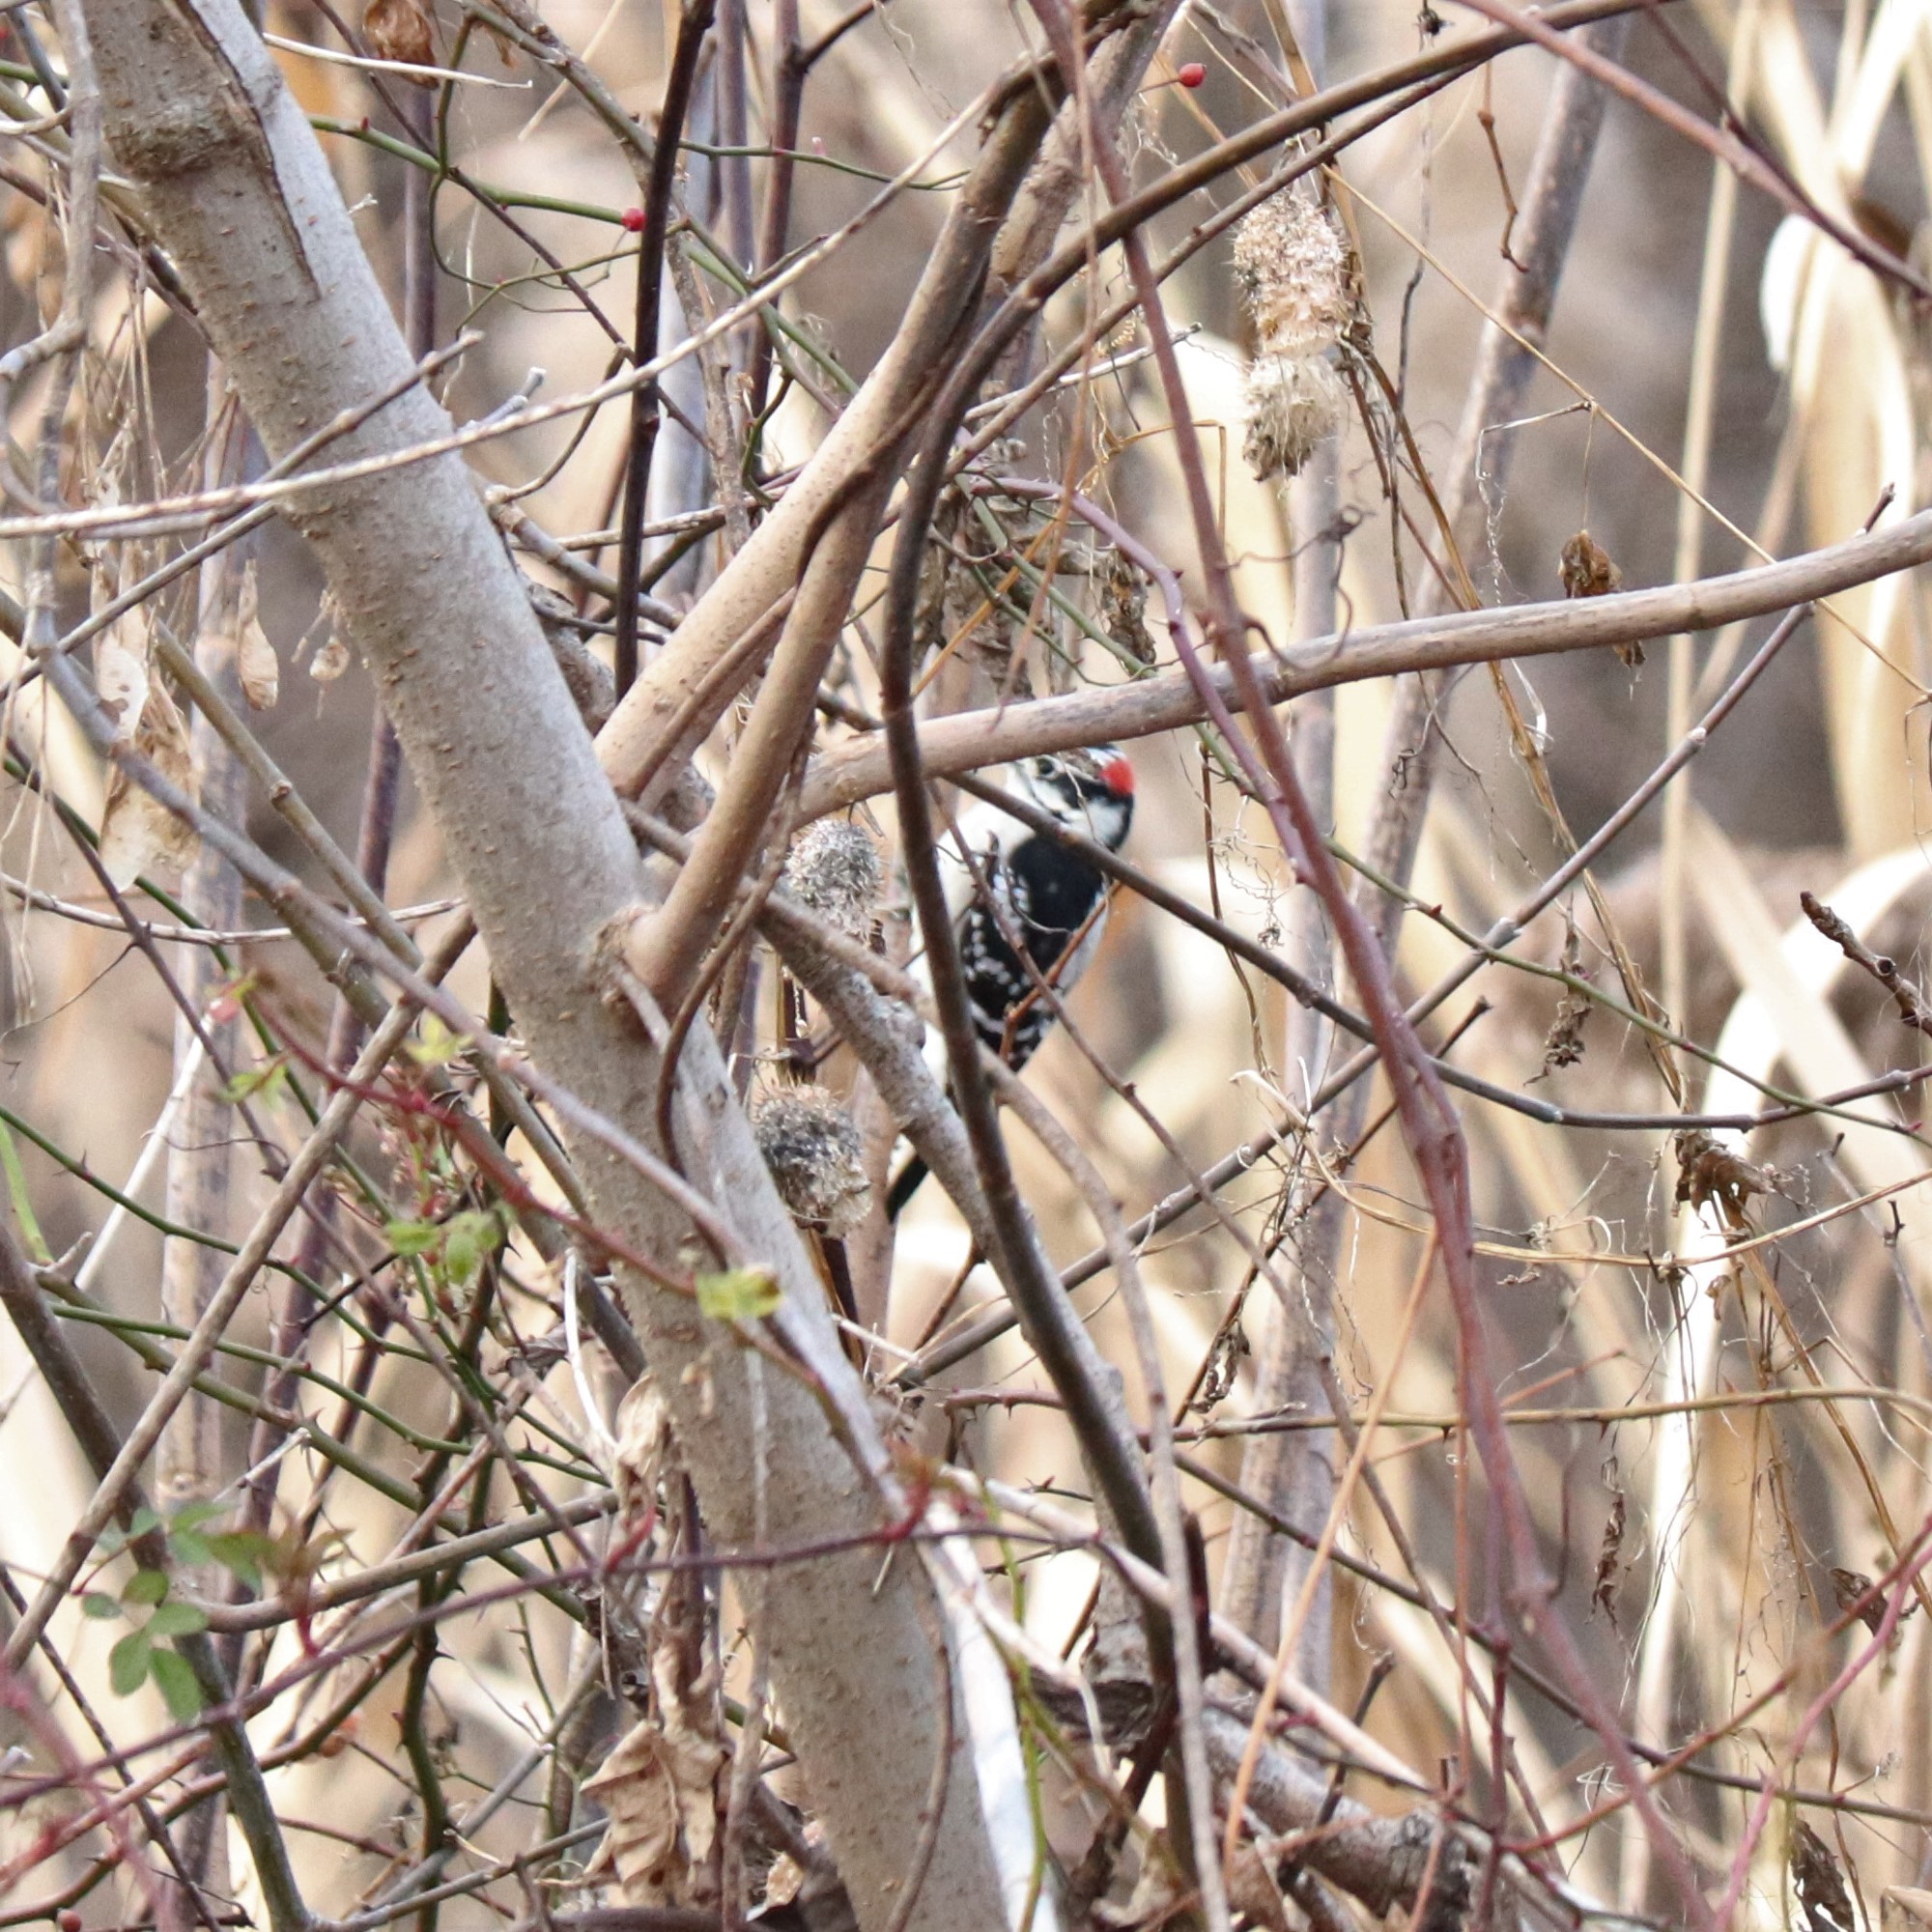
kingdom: Animalia
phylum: Chordata
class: Aves
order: Piciformes
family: Picidae
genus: Dryobates
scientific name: Dryobates pubescens
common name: Downy woodpecker
